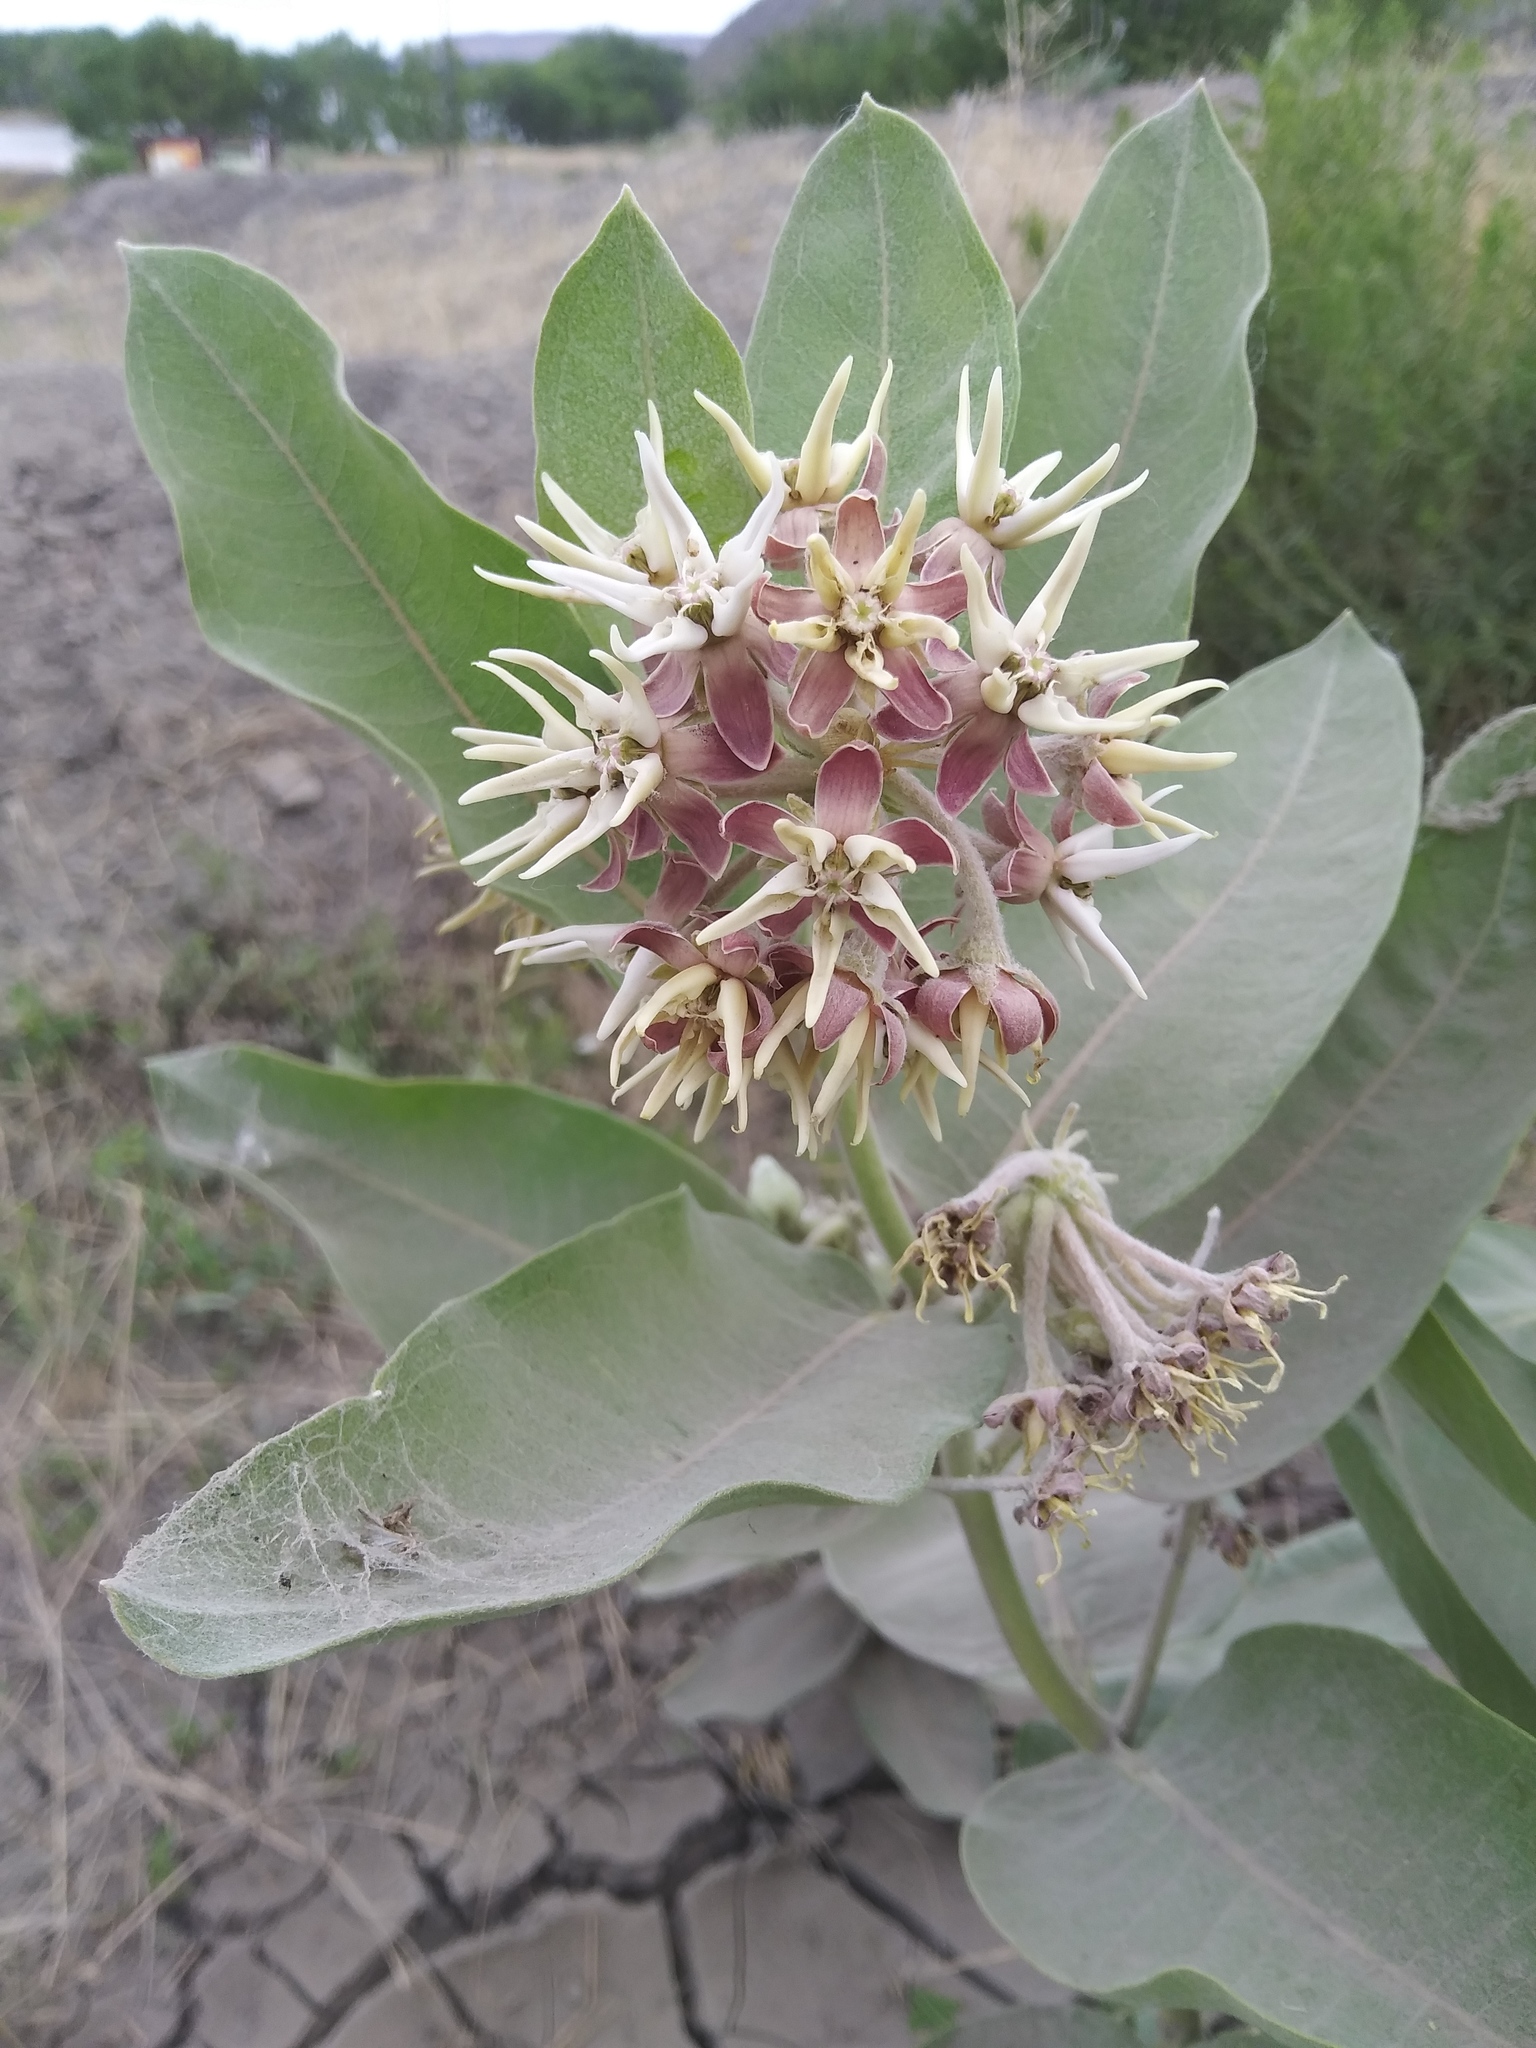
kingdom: Plantae
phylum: Tracheophyta
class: Magnoliopsida
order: Gentianales
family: Apocynaceae
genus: Asclepias
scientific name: Asclepias speciosa
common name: Showy milkweed
